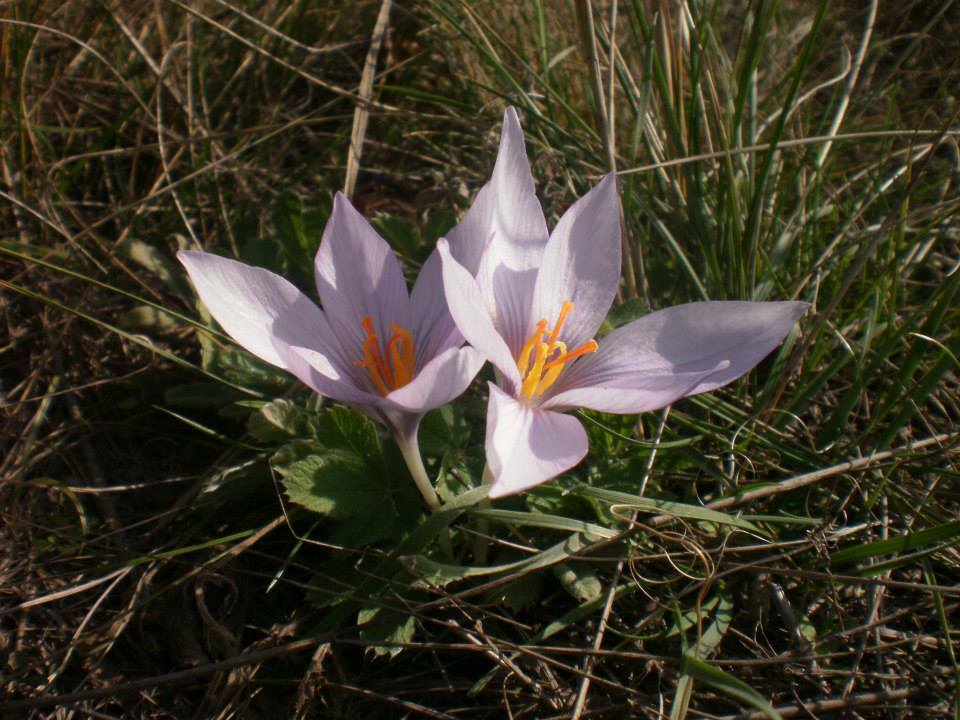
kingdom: Plantae
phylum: Tracheophyta
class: Liliopsida
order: Asparagales
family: Iridaceae
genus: Crocus
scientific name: Crocus pallasii
